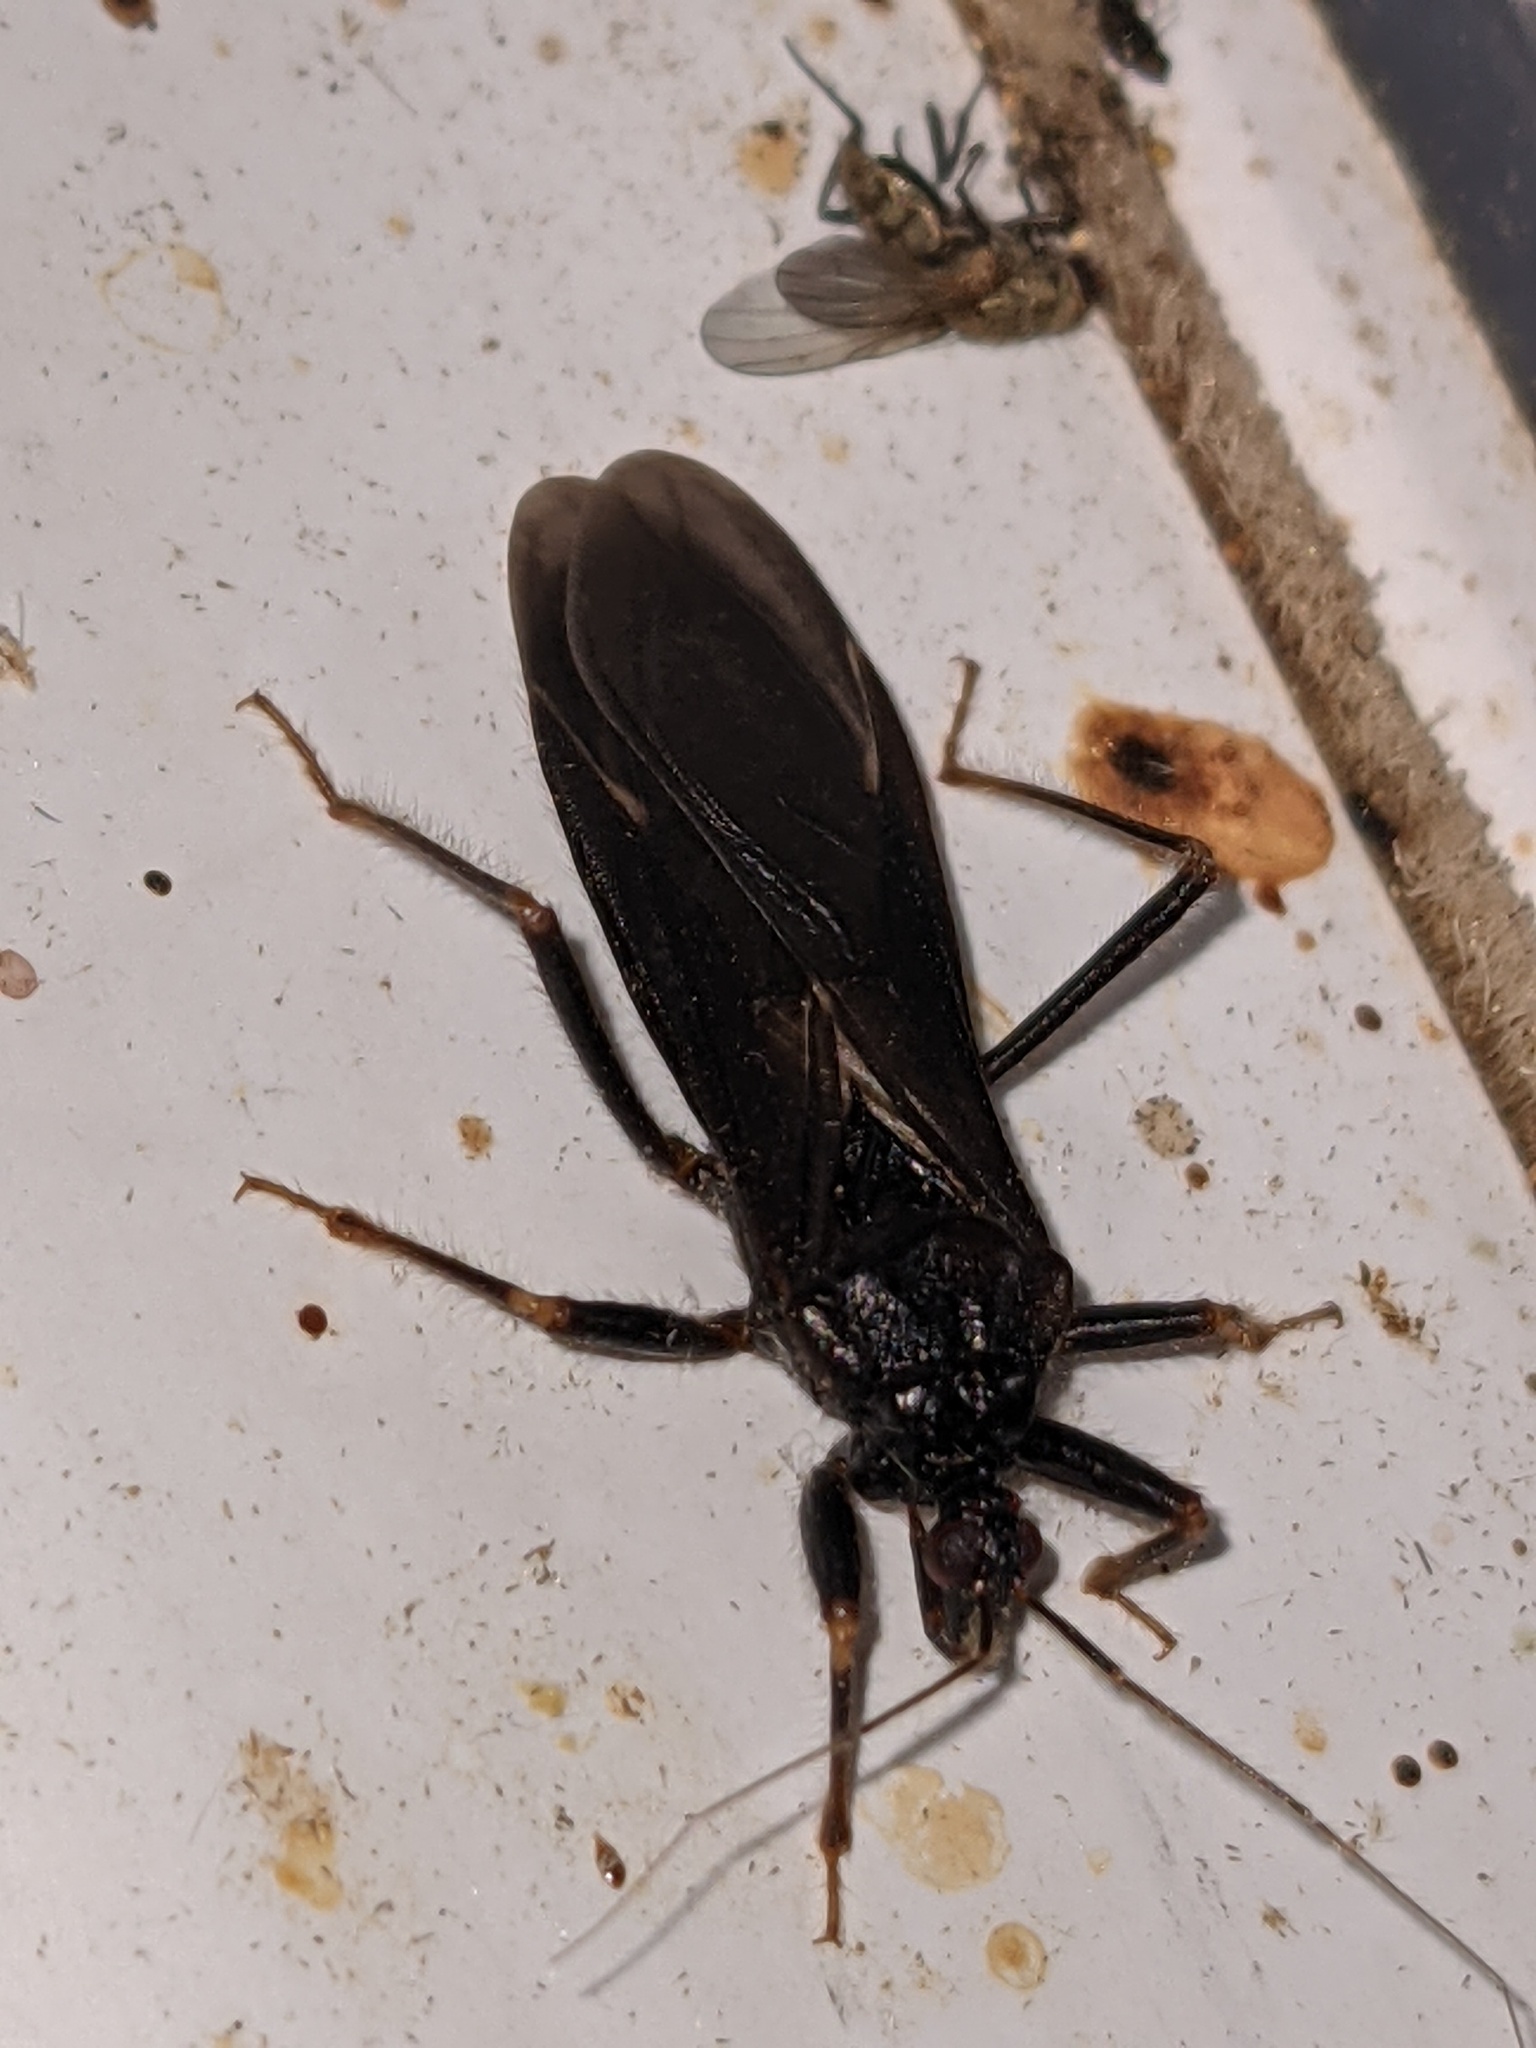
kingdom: Animalia
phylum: Arthropoda
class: Insecta
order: Hemiptera
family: Reduviidae
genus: Reduvius
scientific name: Reduvius personatus
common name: Masked hunter
